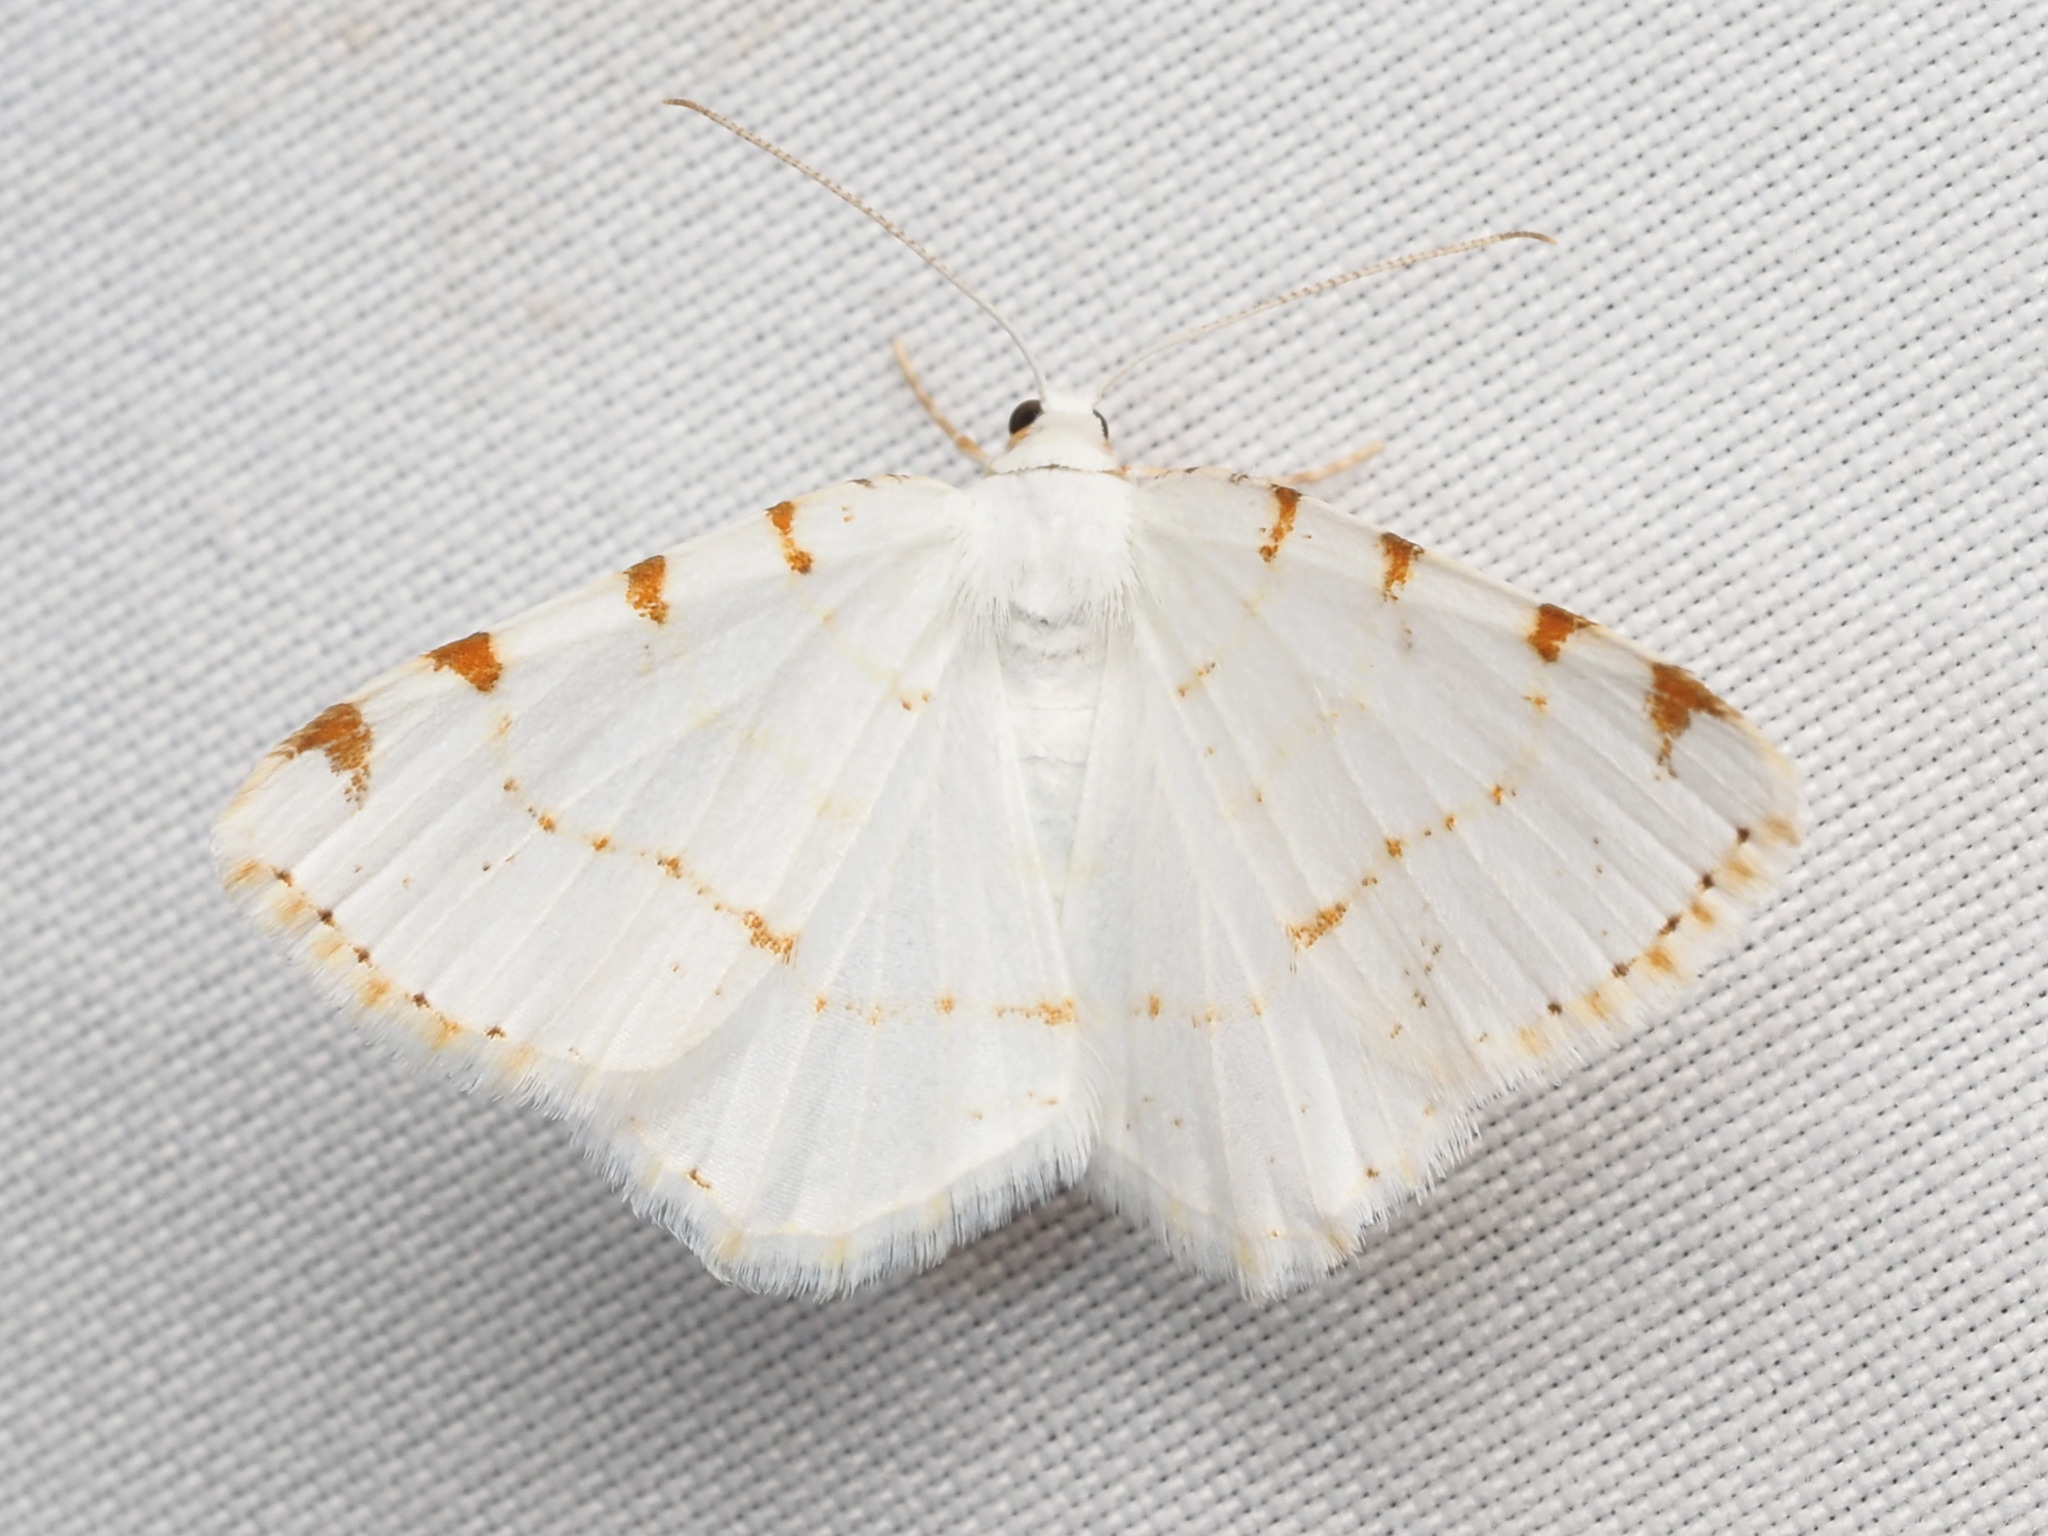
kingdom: Animalia
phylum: Arthropoda
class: Insecta
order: Lepidoptera
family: Geometridae
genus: Macaria
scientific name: Macaria pustularia
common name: Lesser maple spanworm moth
